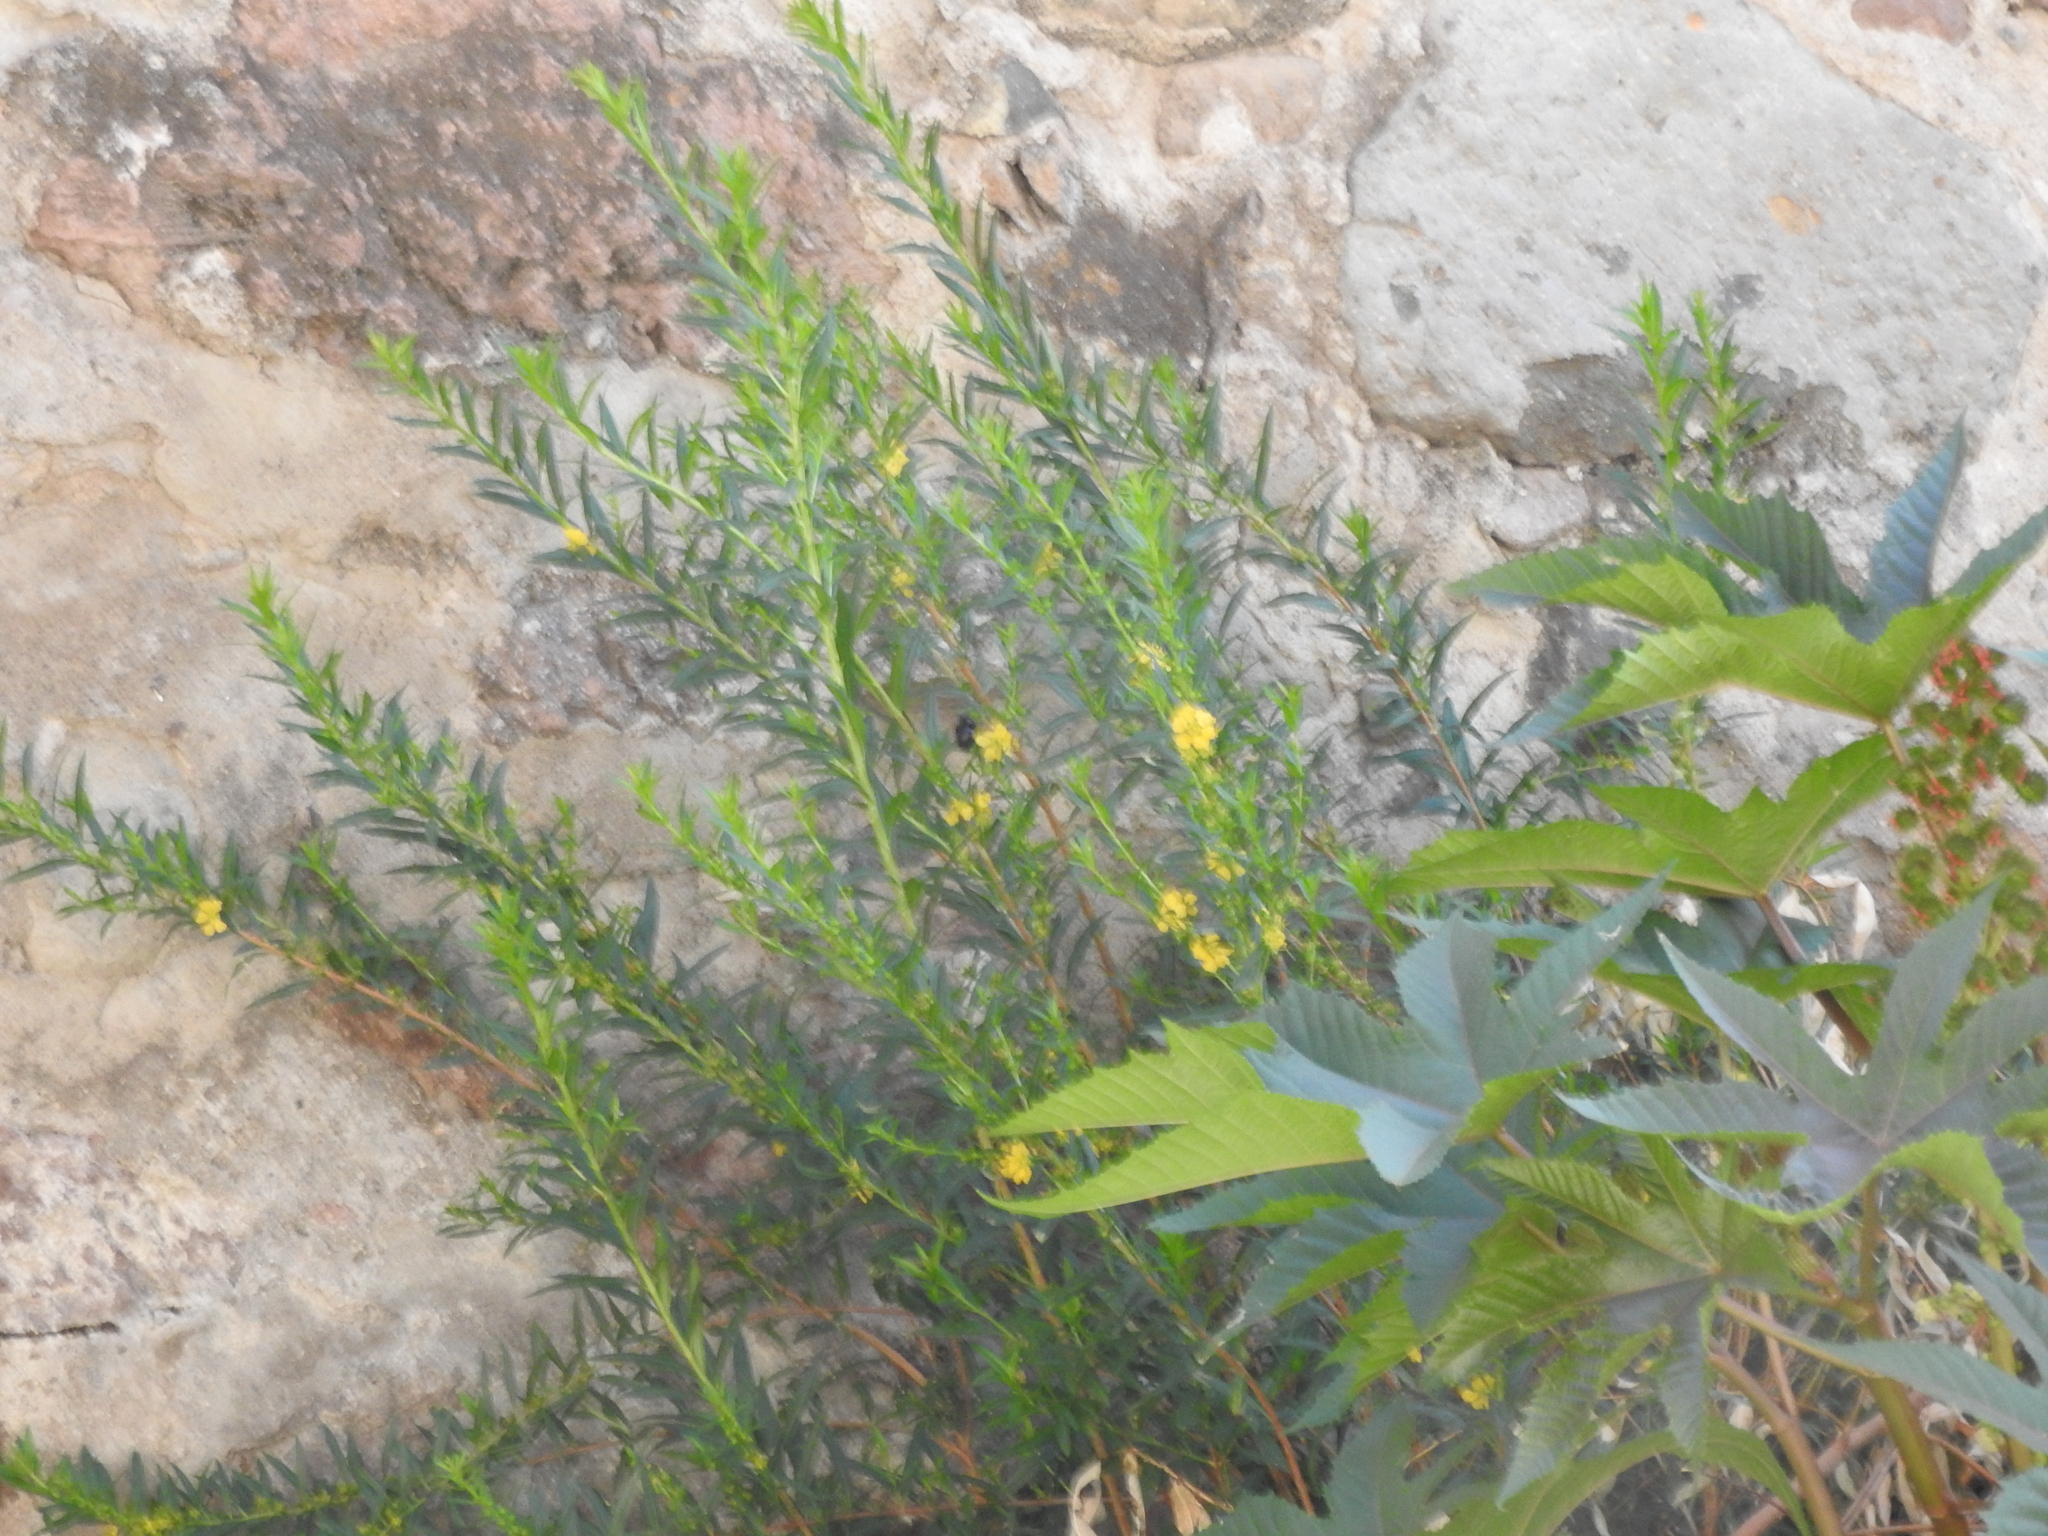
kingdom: Plantae
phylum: Tracheophyta
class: Magnoliopsida
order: Myrtales
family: Lythraceae
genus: Heimia
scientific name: Heimia salicifolia
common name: Willow-leaf heimia
